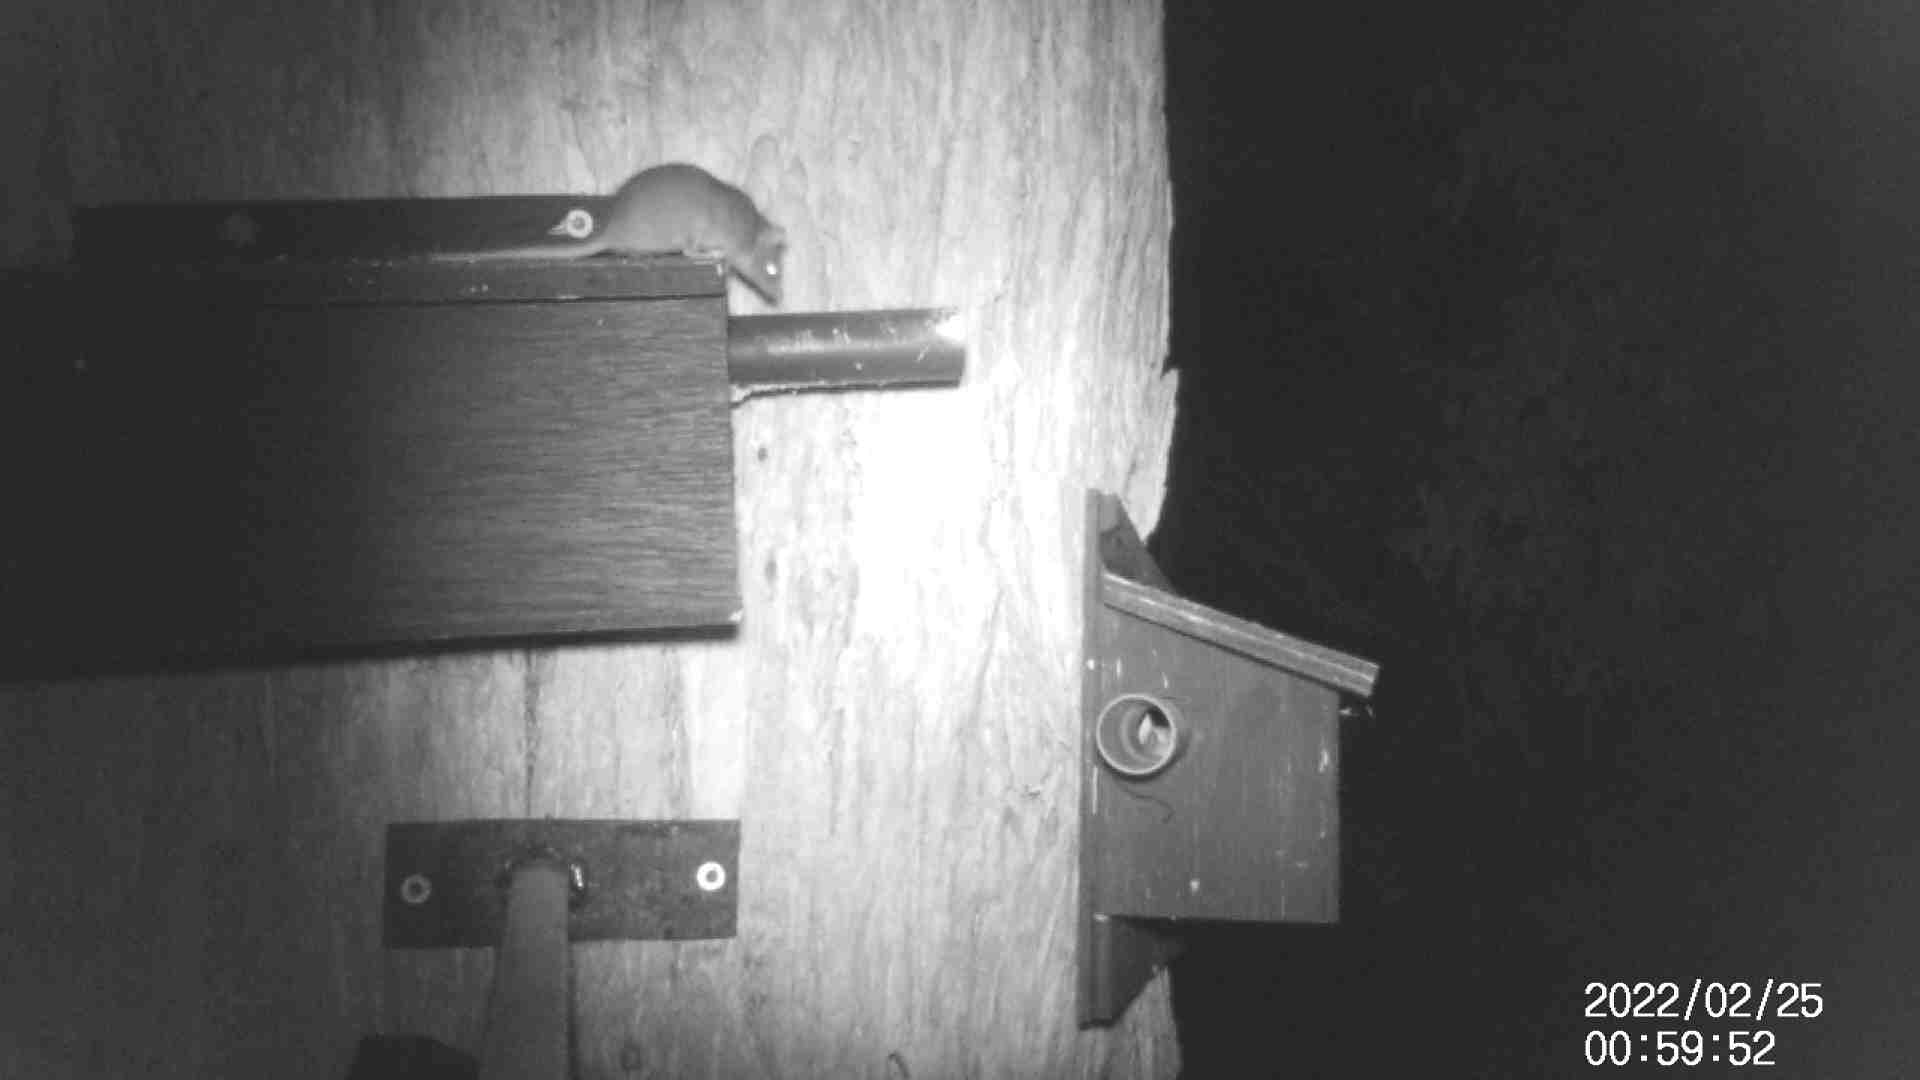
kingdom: Animalia
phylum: Chordata
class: Mammalia
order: Dasyuromorphia
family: Dasyuridae
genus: Antechinus
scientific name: Antechinus agilis
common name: Agile antechinus
